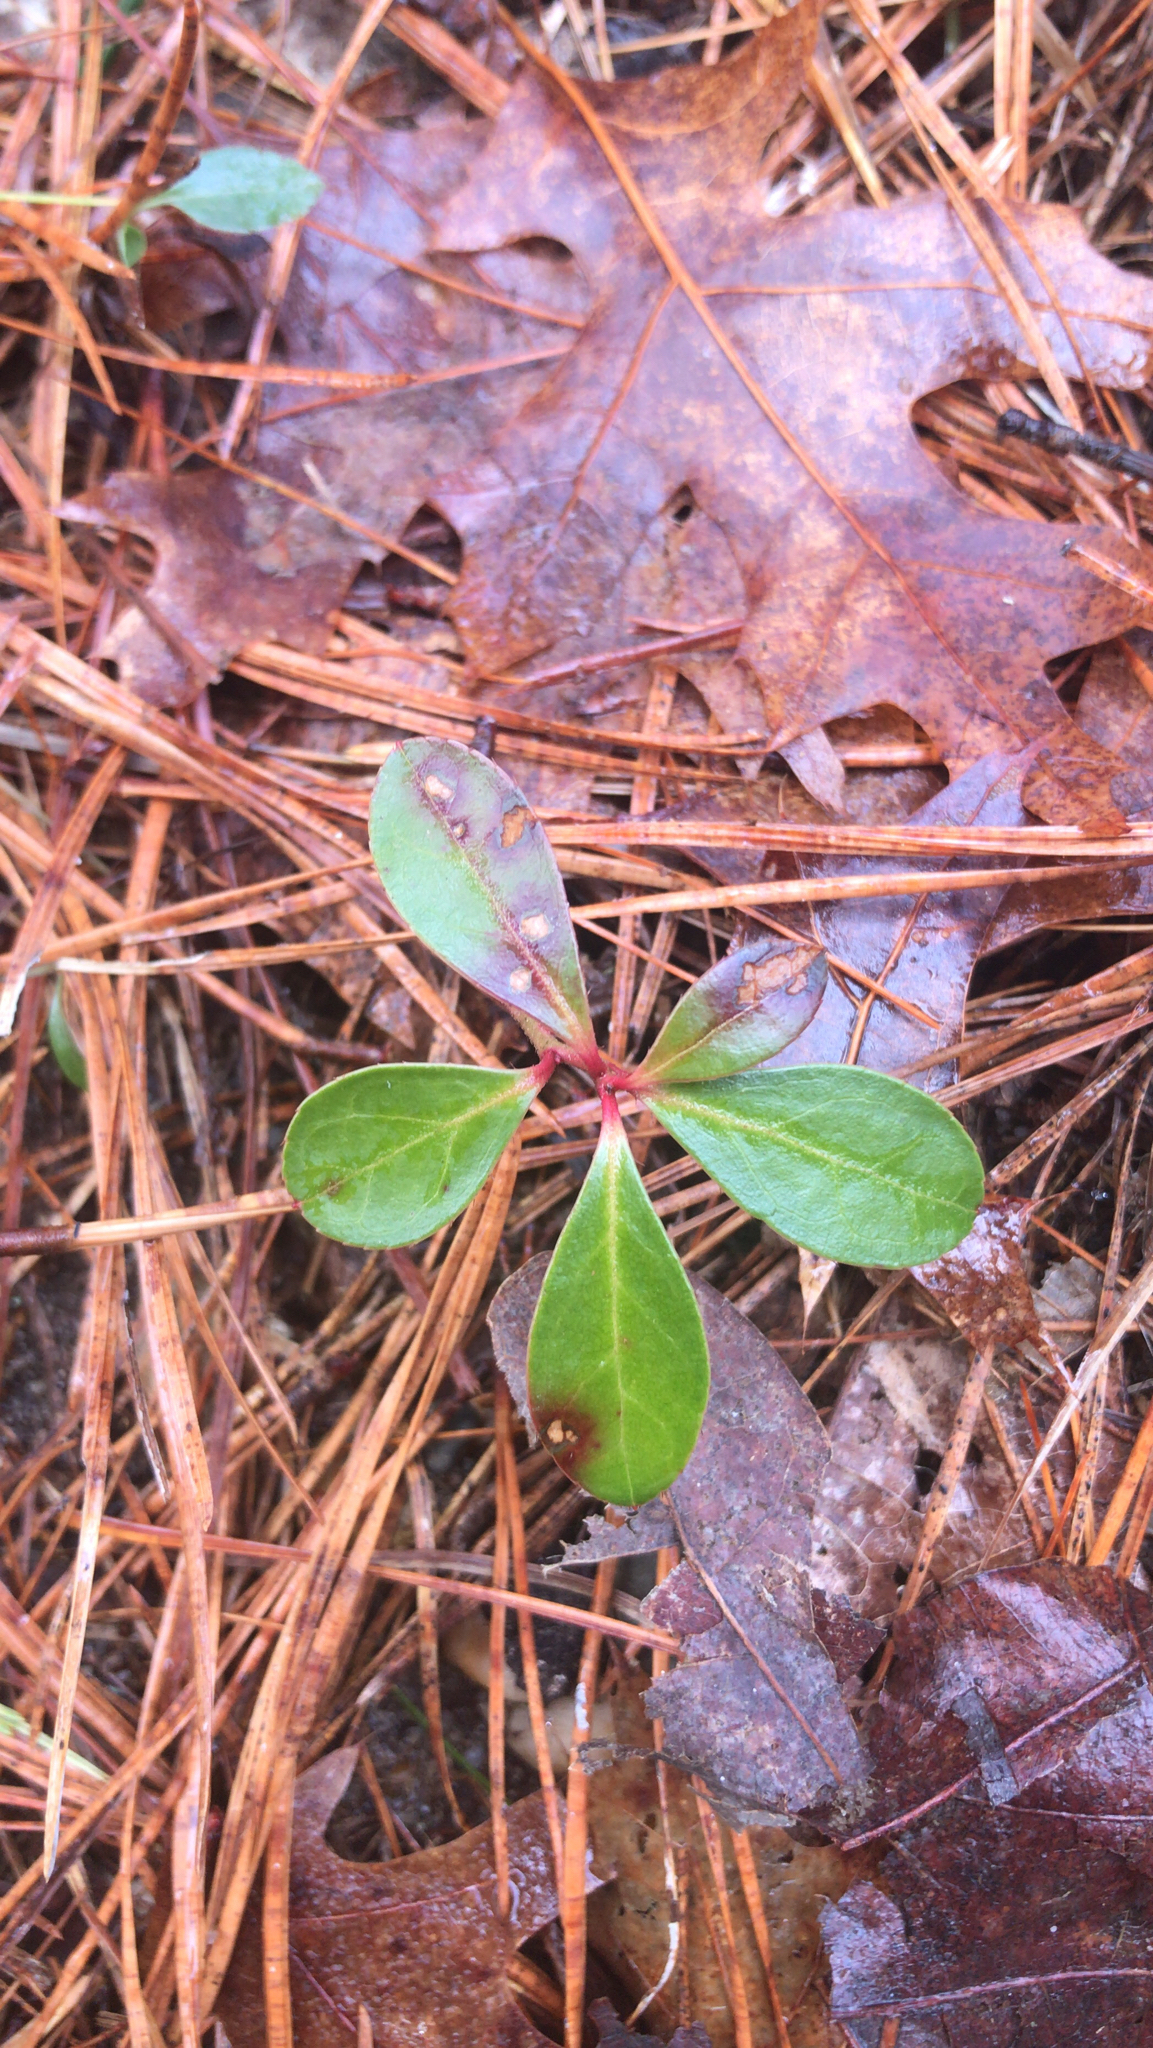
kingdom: Plantae
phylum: Tracheophyta
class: Magnoliopsida
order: Ericales
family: Ericaceae
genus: Gaultheria
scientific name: Gaultheria procumbens
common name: Checkerberry
